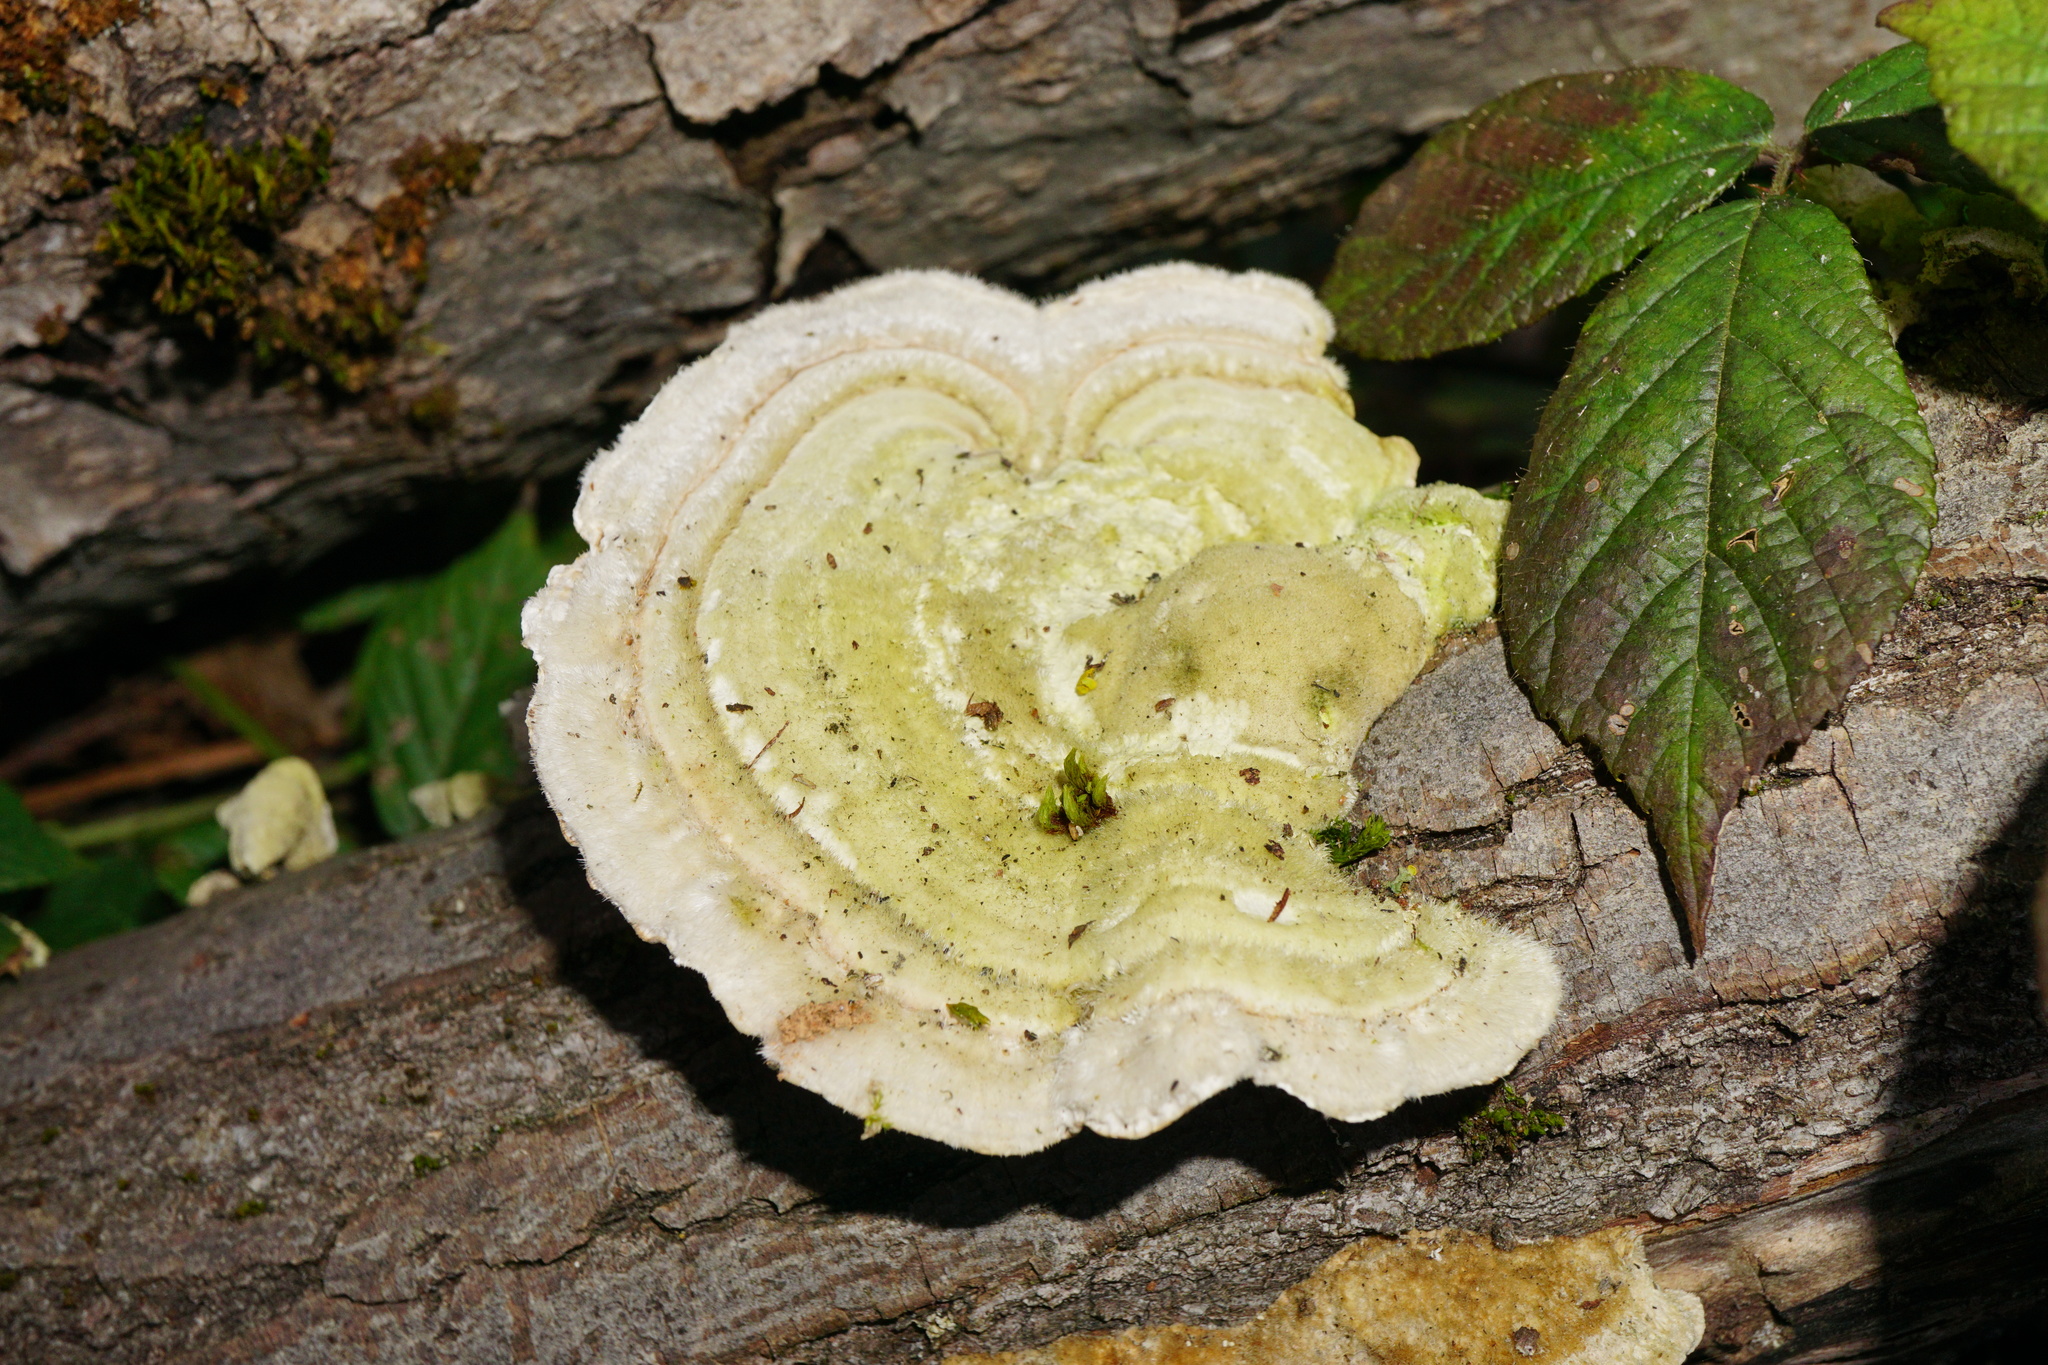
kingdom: Fungi
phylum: Basidiomycota
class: Agaricomycetes
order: Polyporales
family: Polyporaceae
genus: Trametes
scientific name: Trametes hirsuta
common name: Hairy bracket
